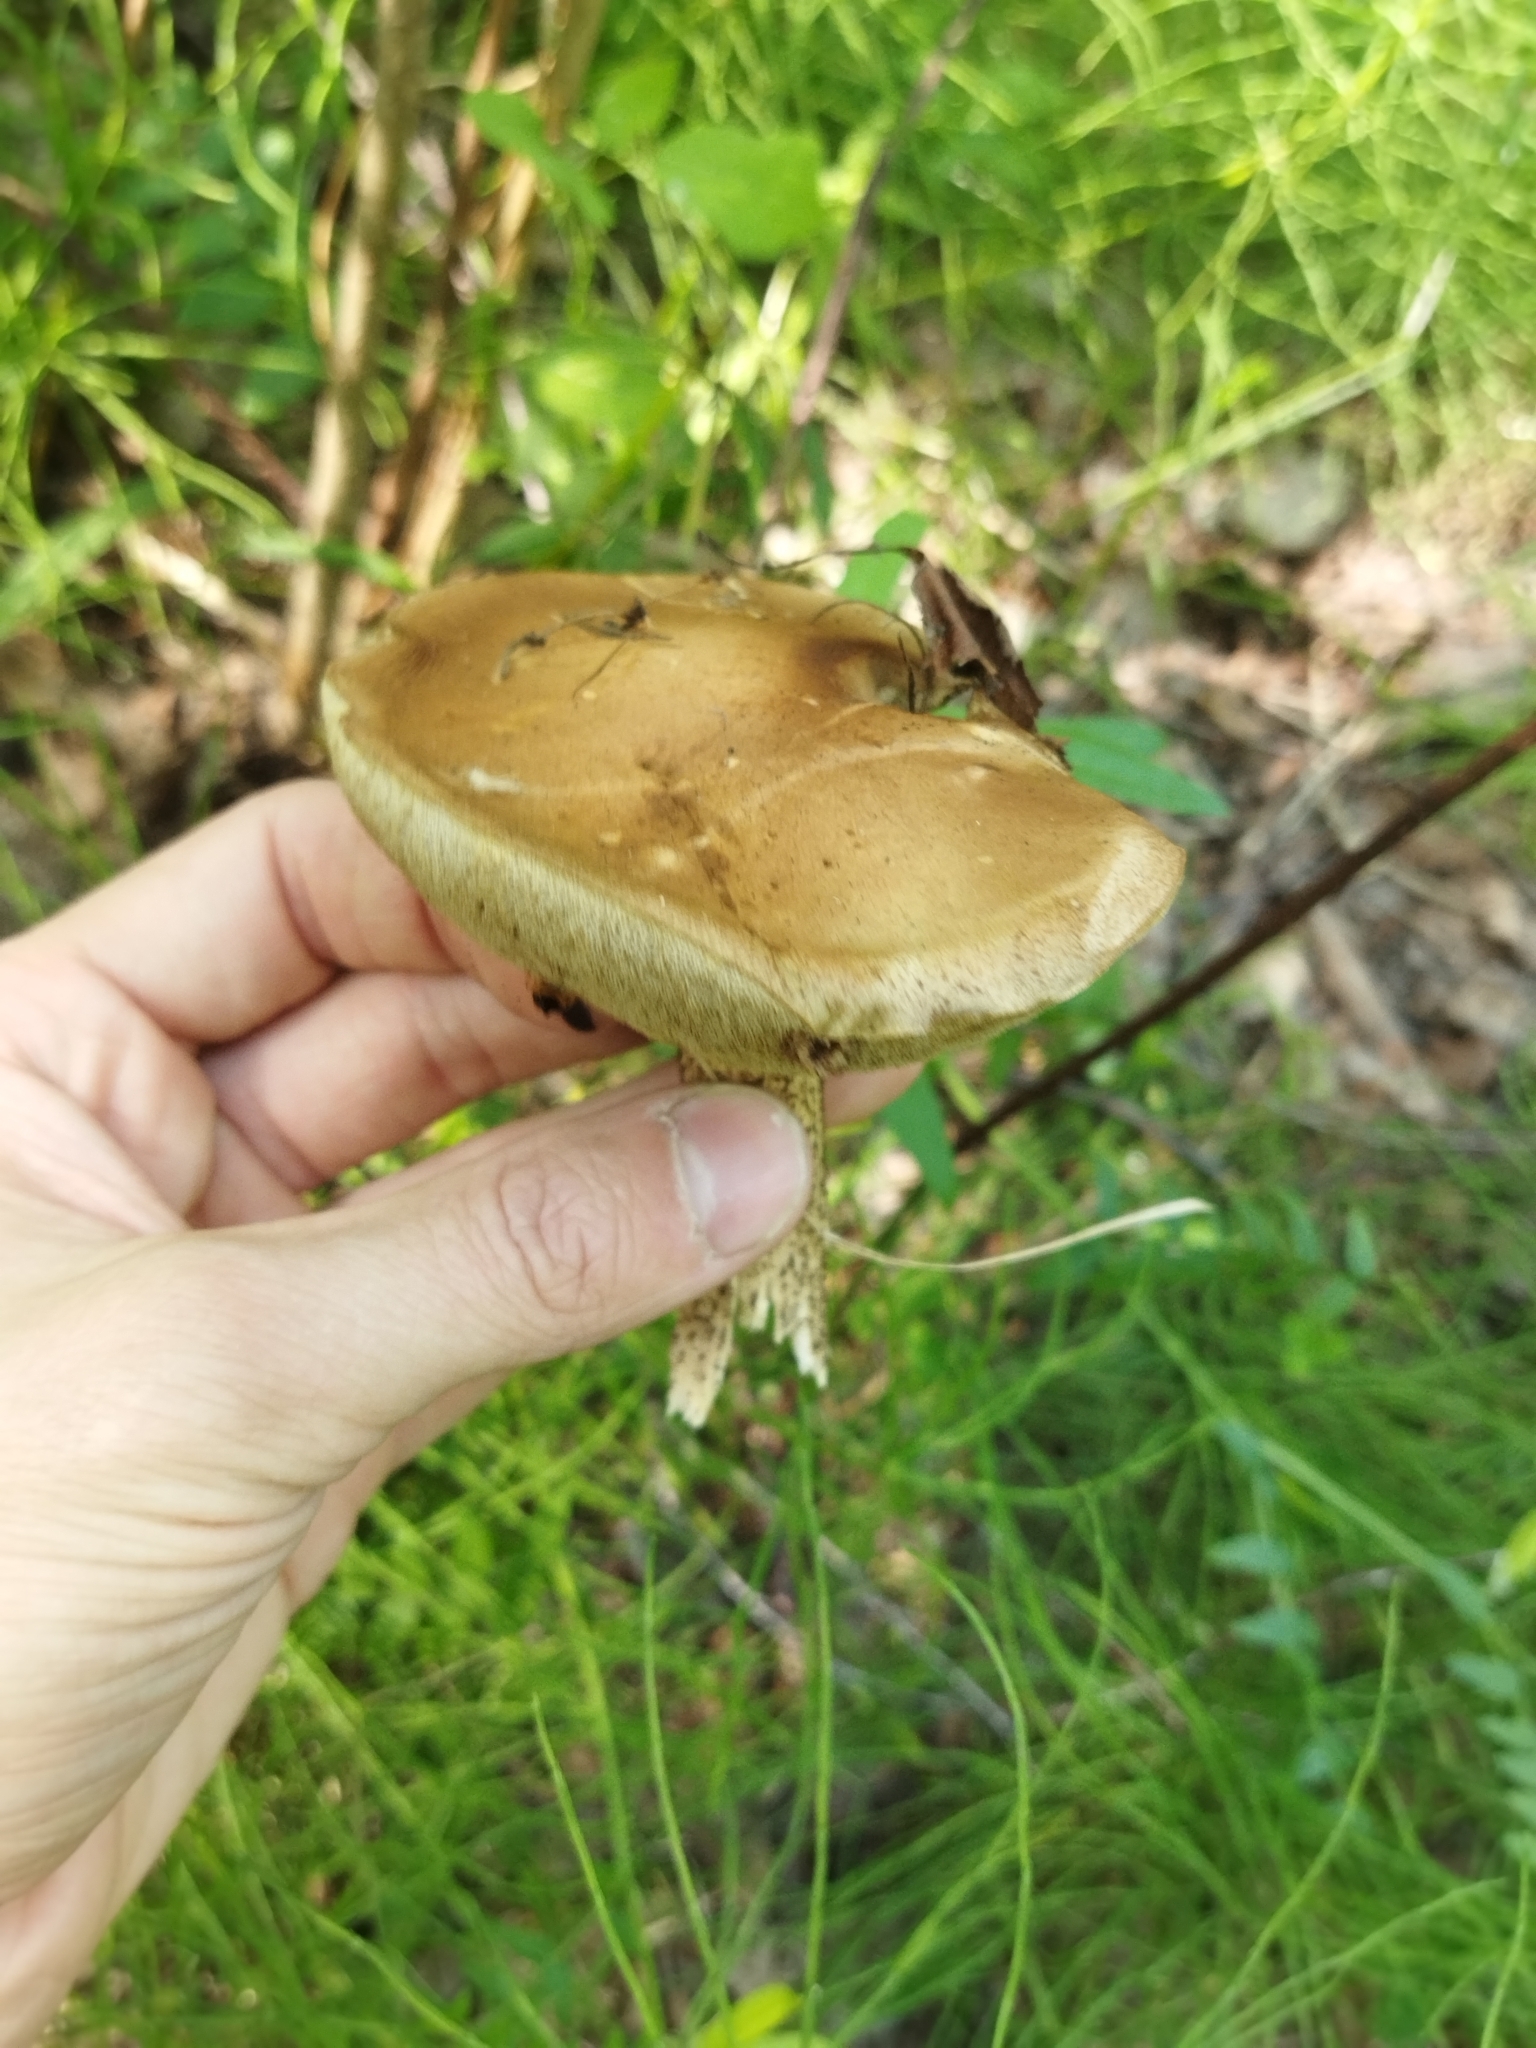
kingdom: Fungi
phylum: Basidiomycota
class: Agaricomycetes
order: Boletales
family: Boletaceae
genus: Leccinum
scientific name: Leccinum scabrum
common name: Blushing bolete
